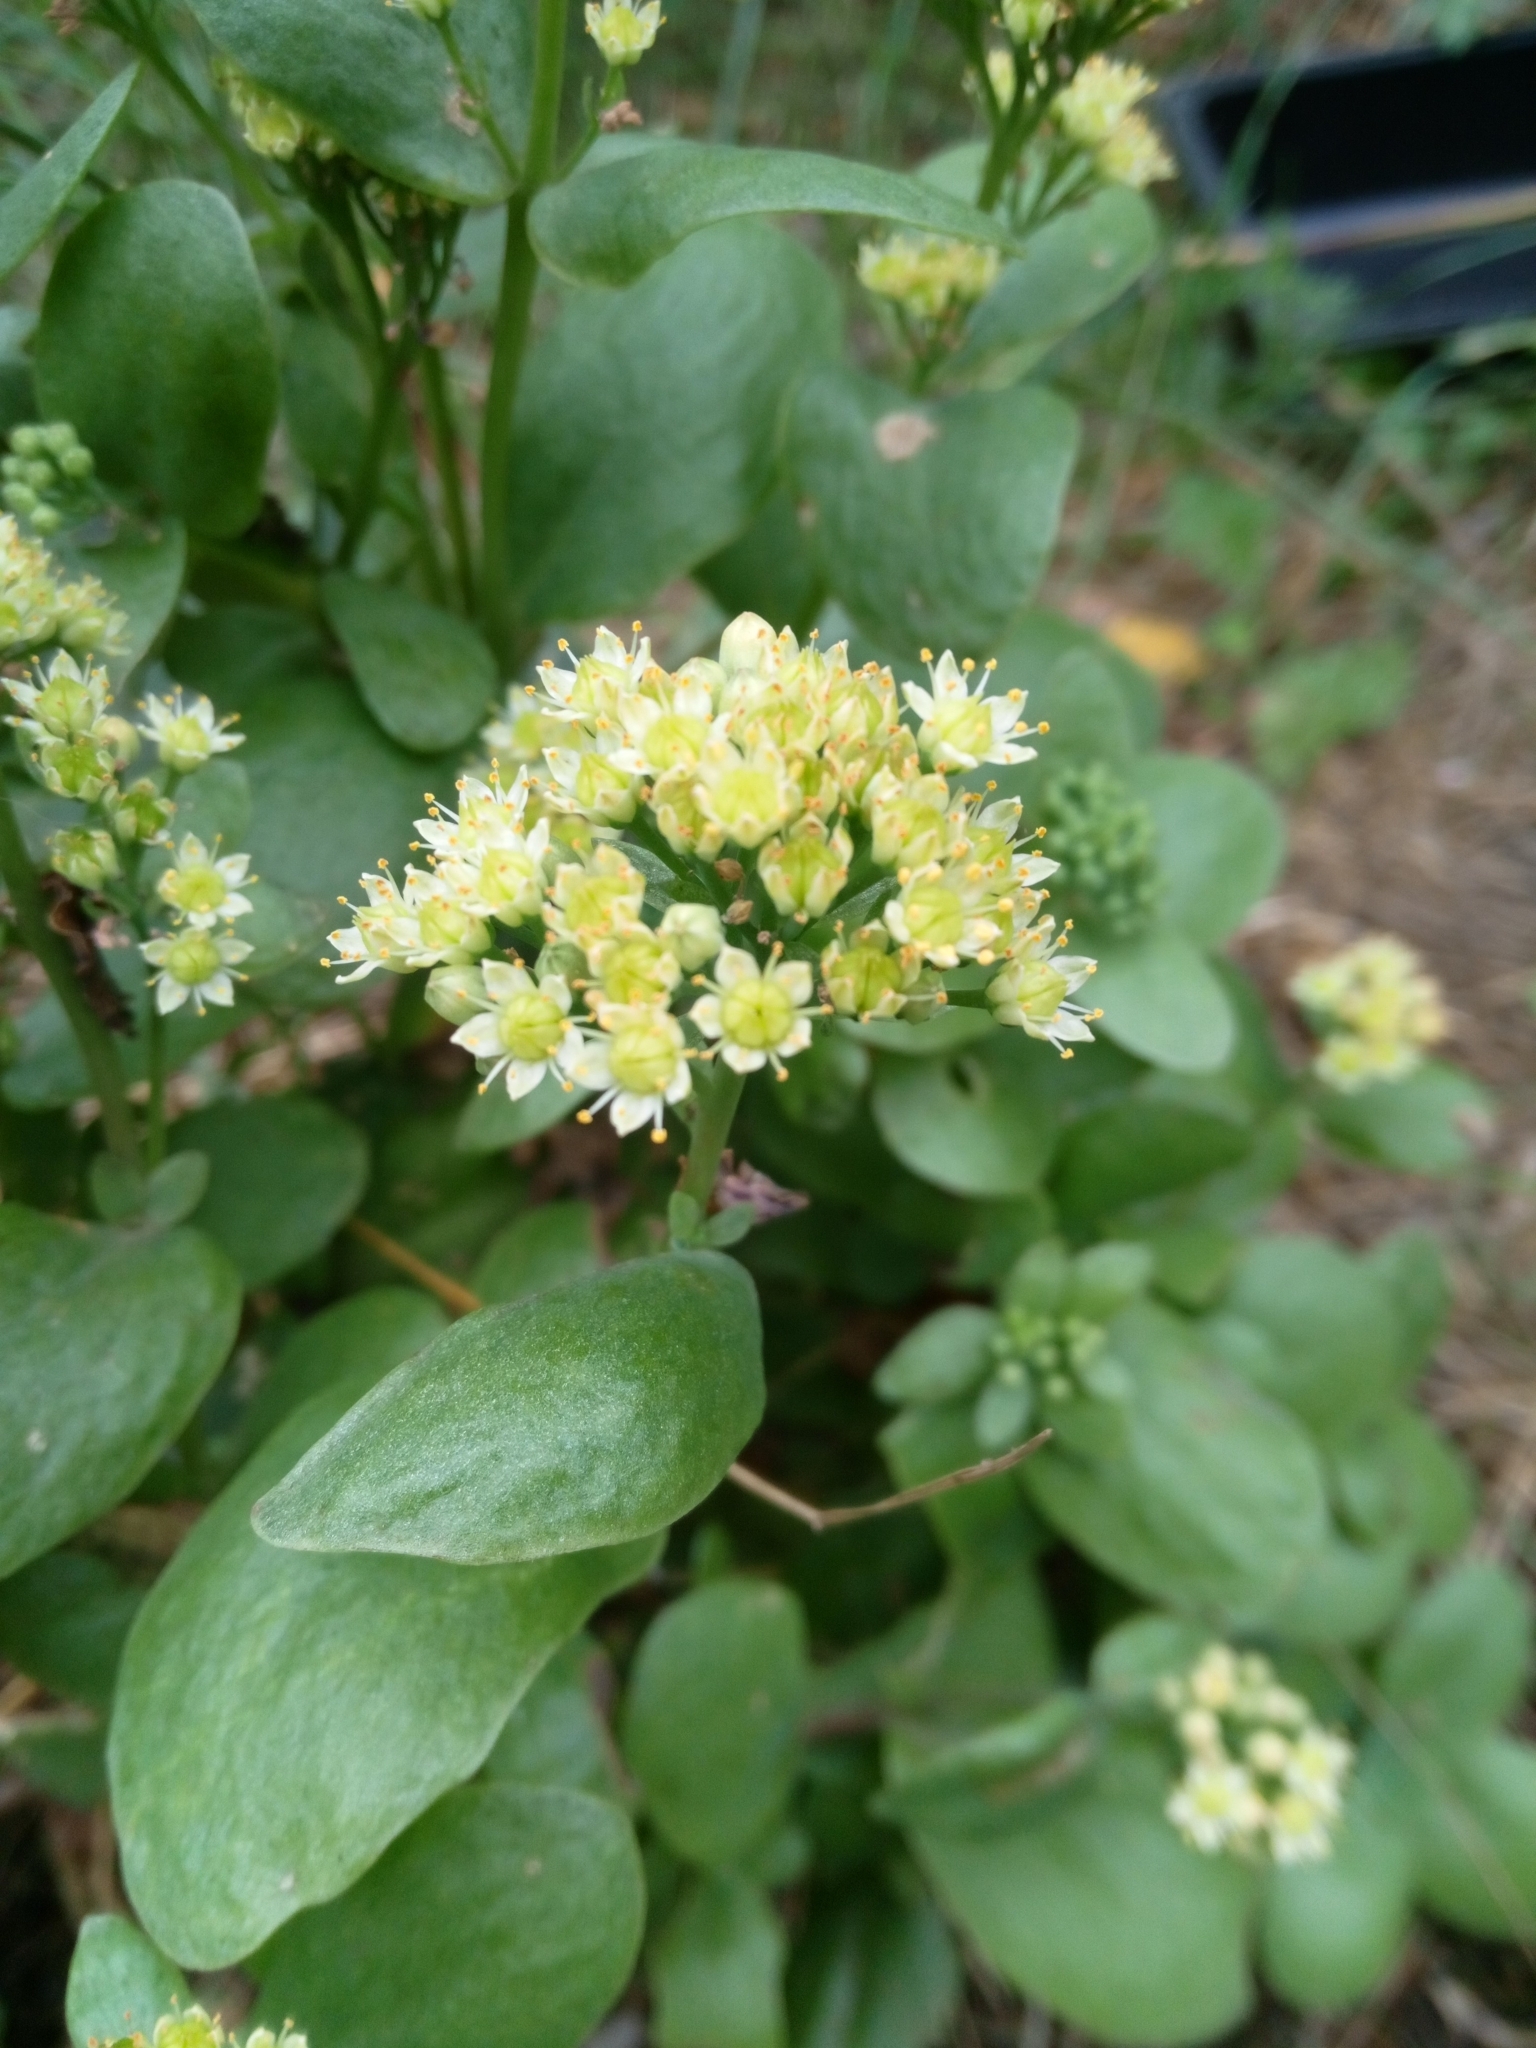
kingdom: Plantae
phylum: Tracheophyta
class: Magnoliopsida
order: Saxifragales
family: Crassulaceae
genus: Hylotelephium
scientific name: Hylotelephium maximum
